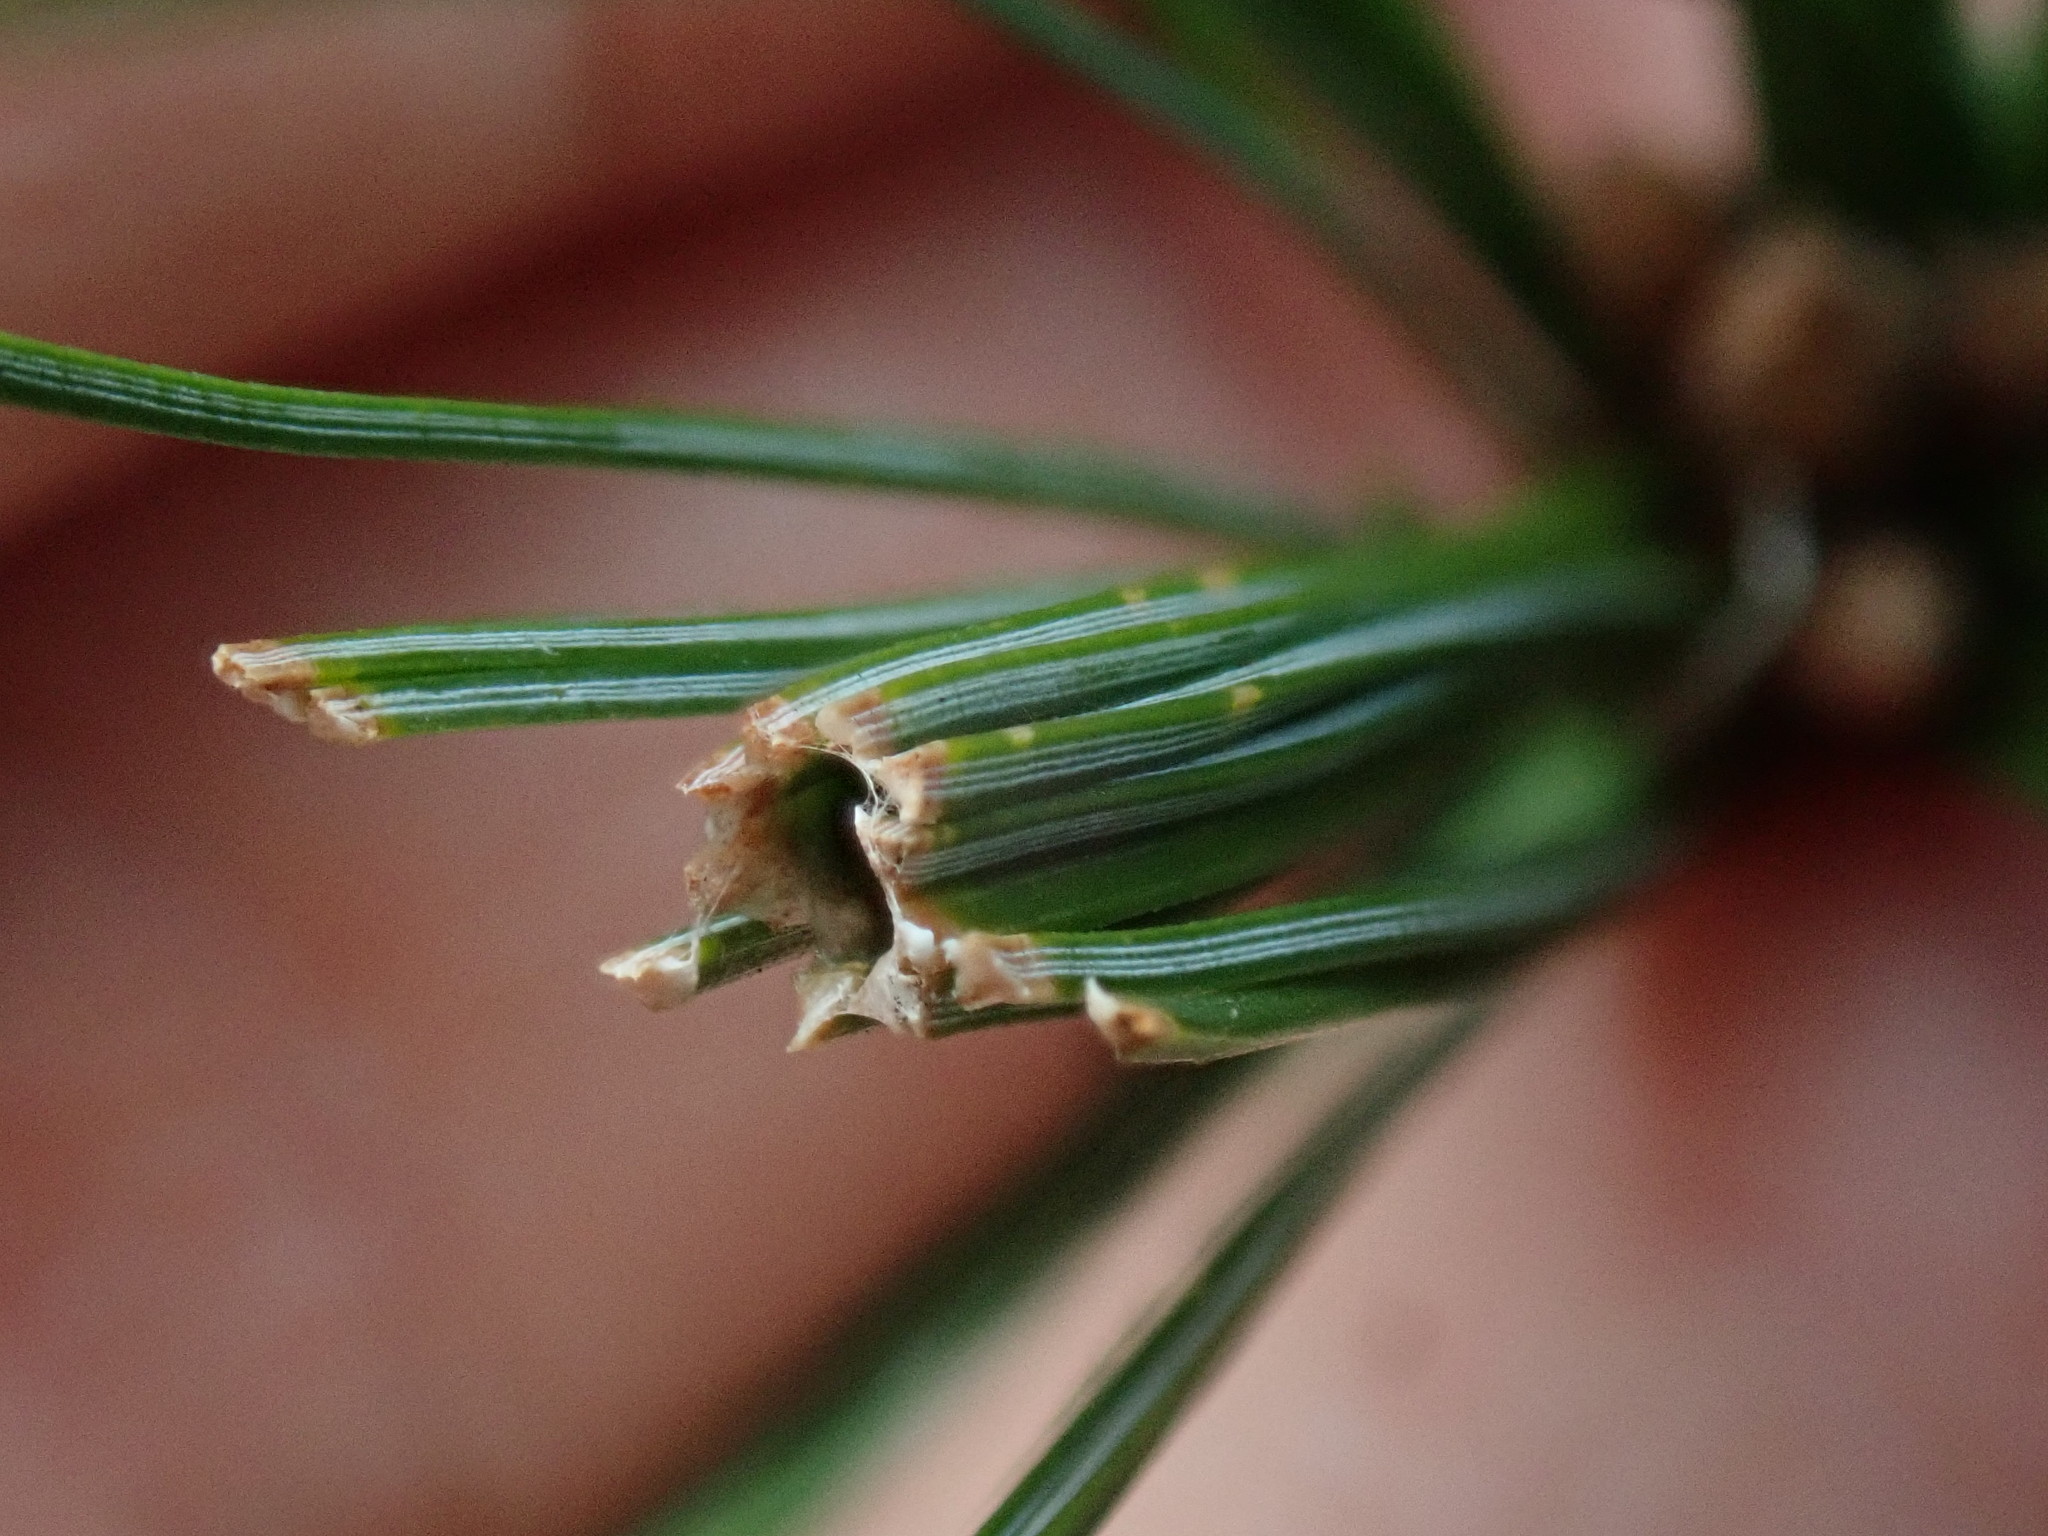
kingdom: Animalia
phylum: Arthropoda
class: Insecta
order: Lepidoptera
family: Tortricidae
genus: Argyrotaenia
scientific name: Argyrotaenia pinatubana
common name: Pine tube moth
